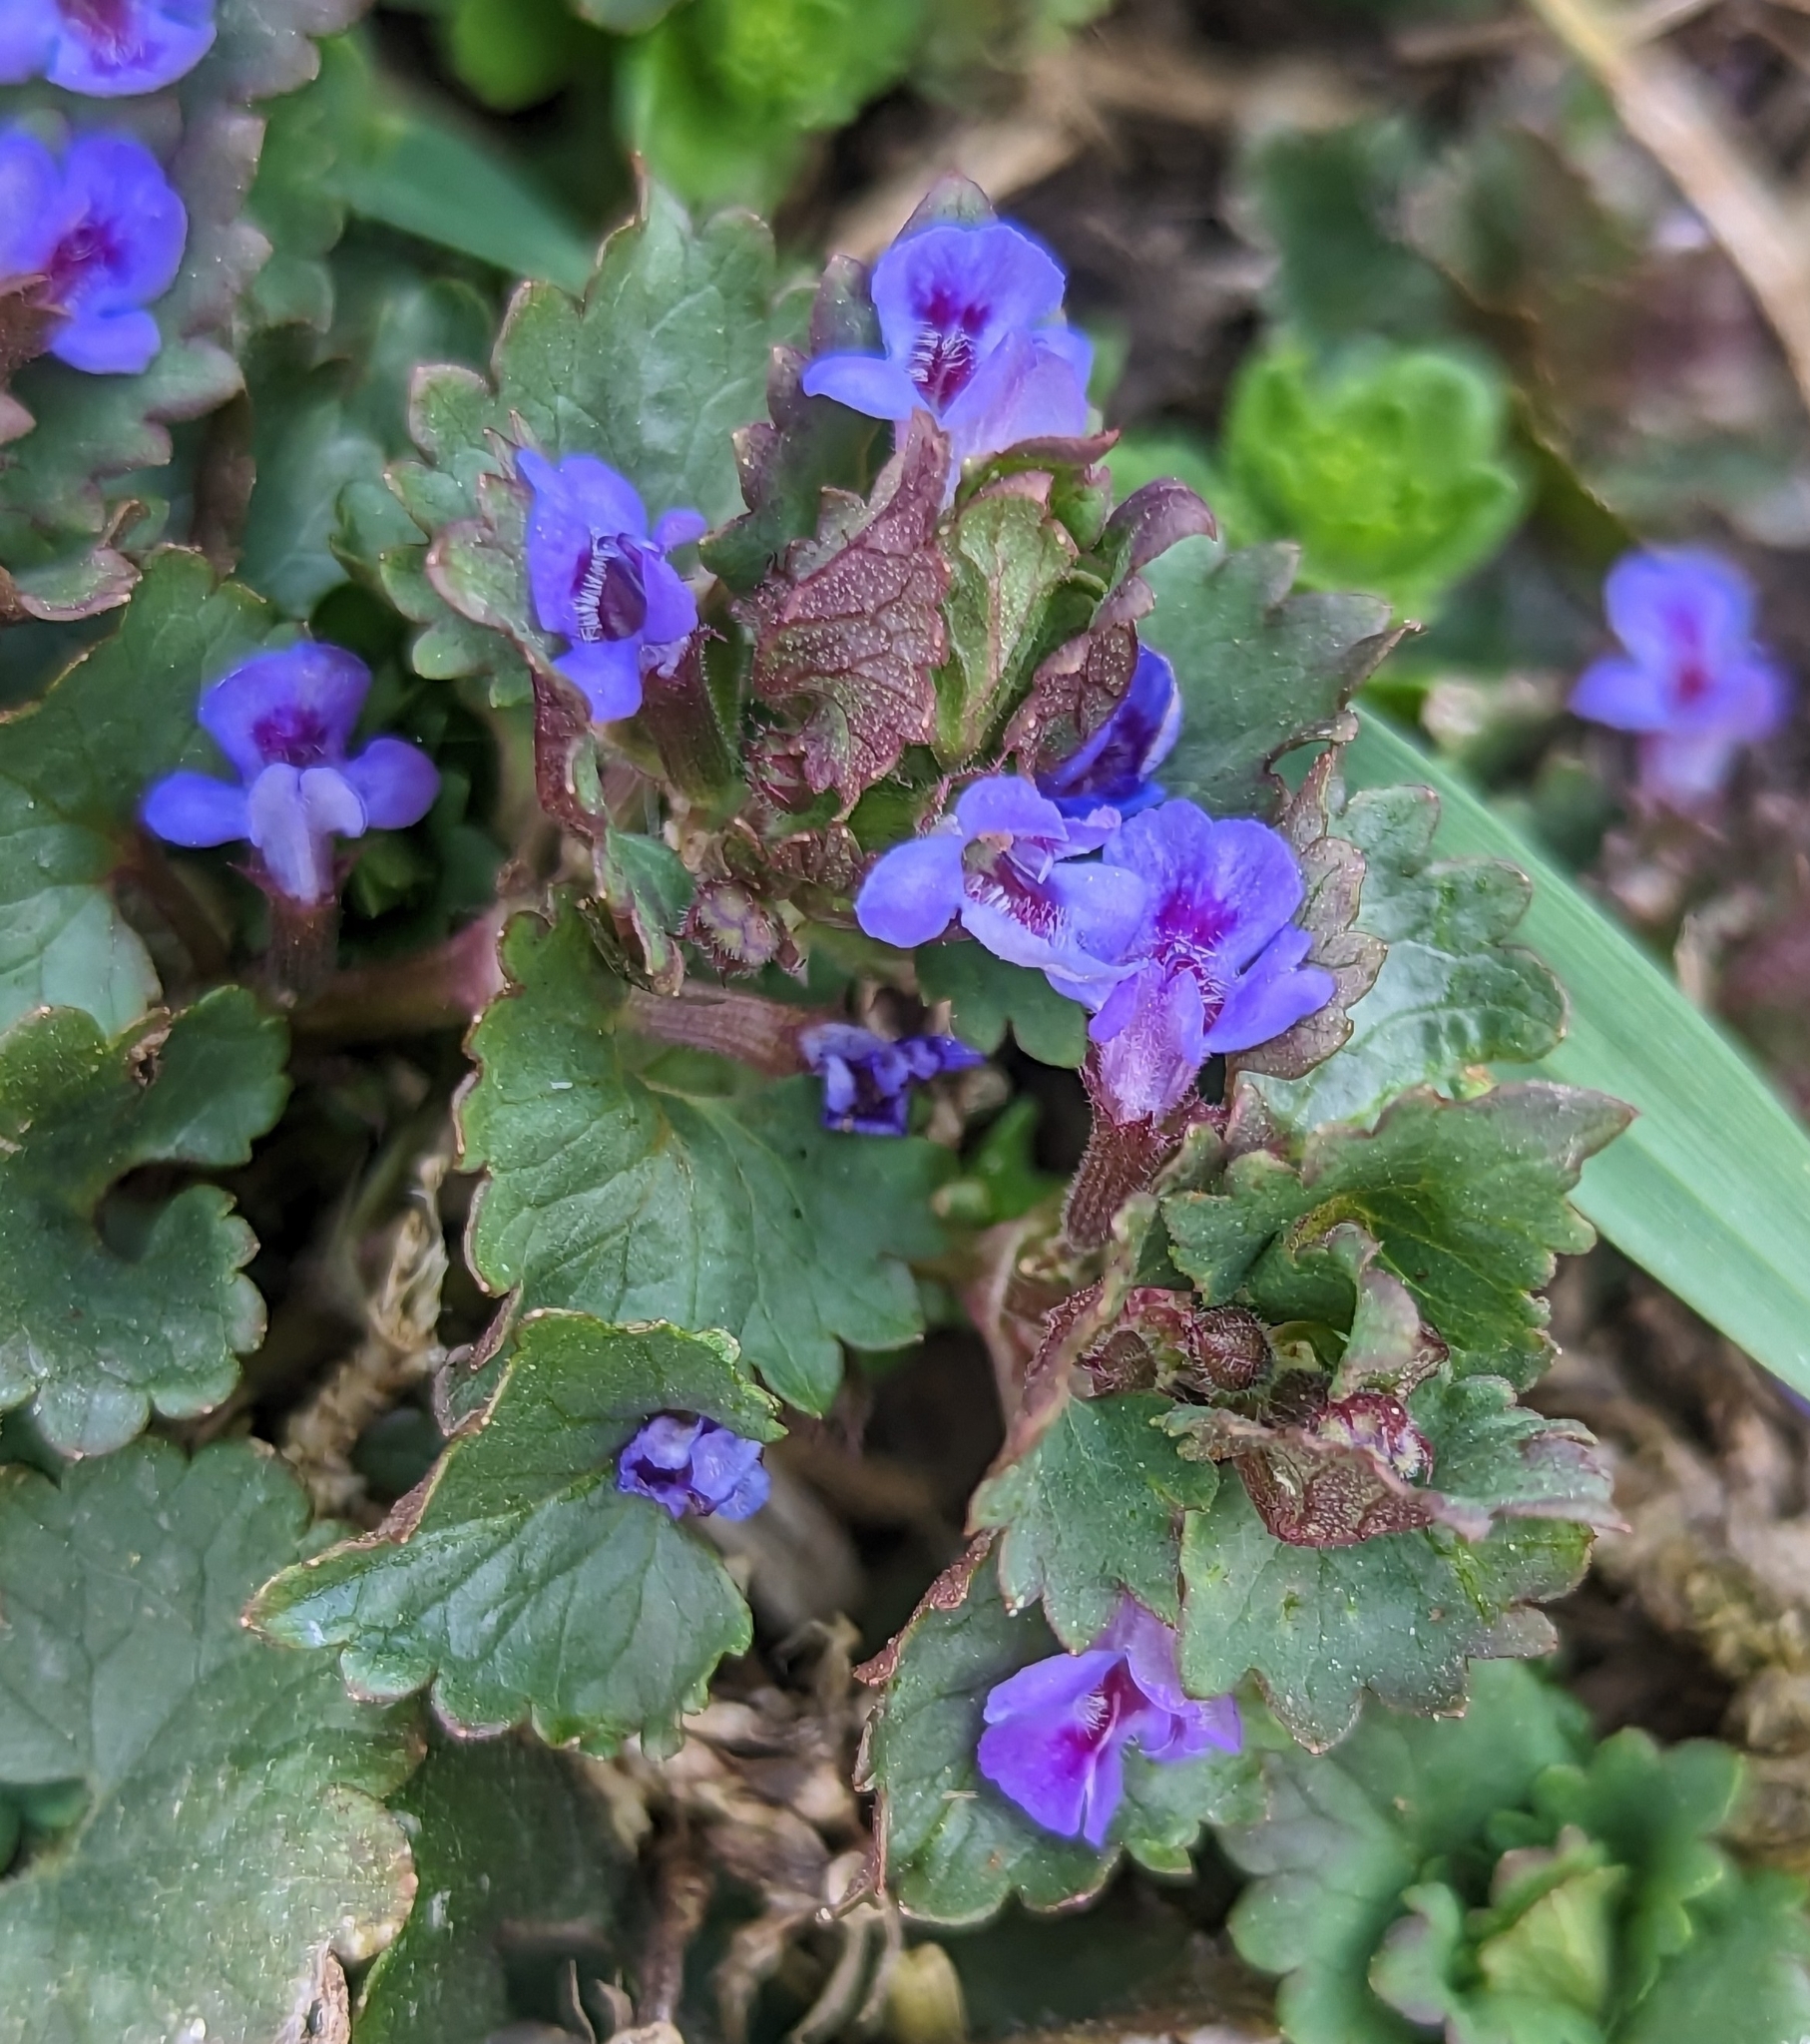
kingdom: Plantae
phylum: Tracheophyta
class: Magnoliopsida
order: Lamiales
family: Lamiaceae
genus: Glechoma
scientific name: Glechoma hederacea
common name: Ground ivy
